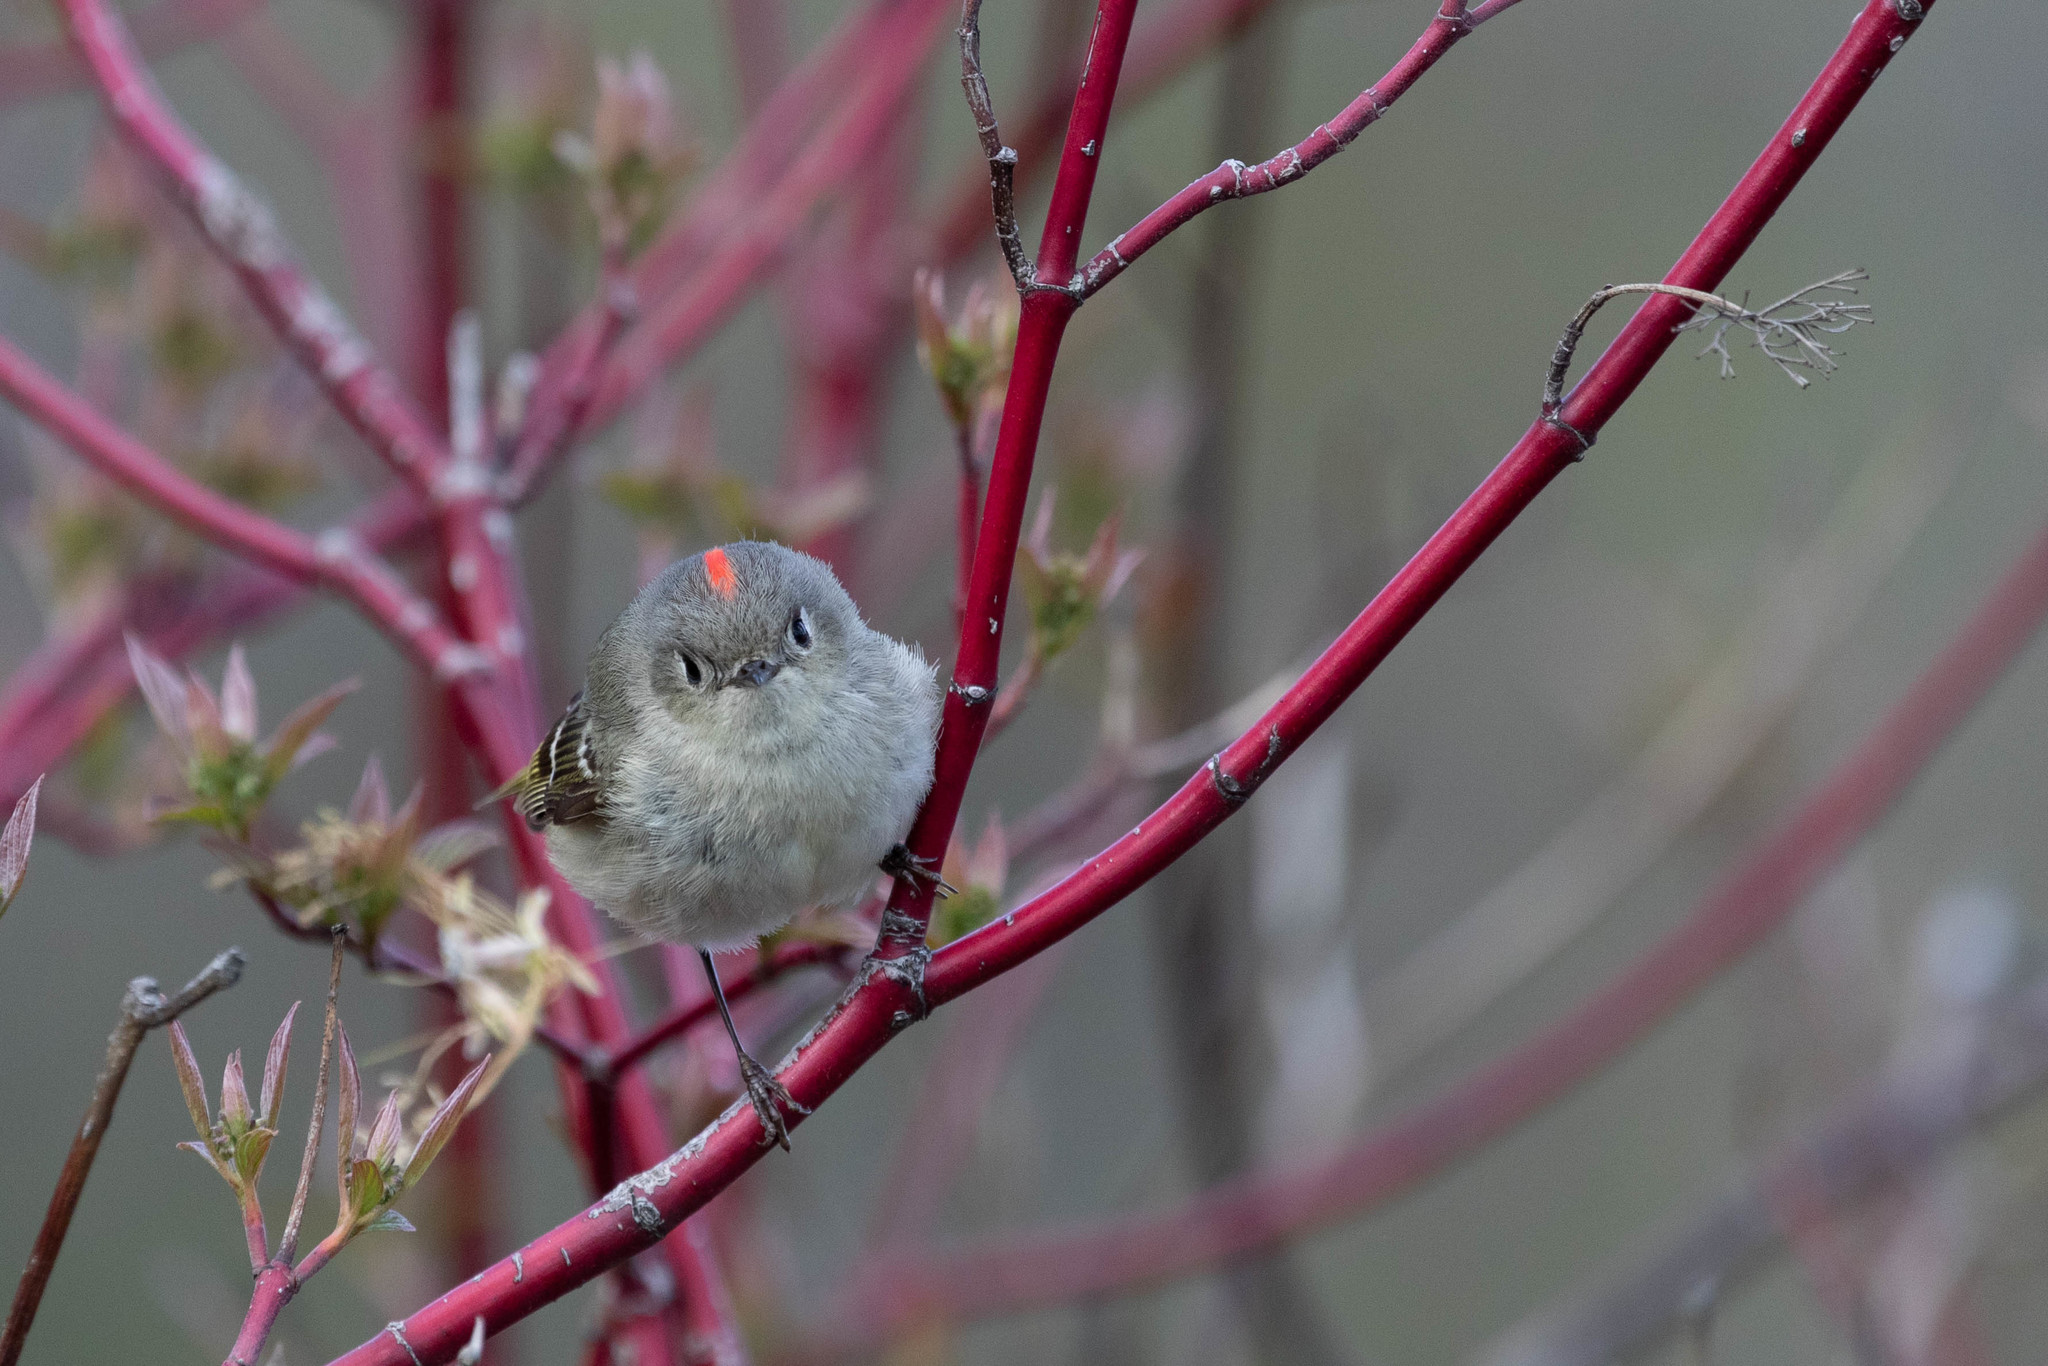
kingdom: Animalia
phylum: Chordata
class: Aves
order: Passeriformes
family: Regulidae
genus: Regulus
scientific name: Regulus calendula
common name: Ruby-crowned kinglet
